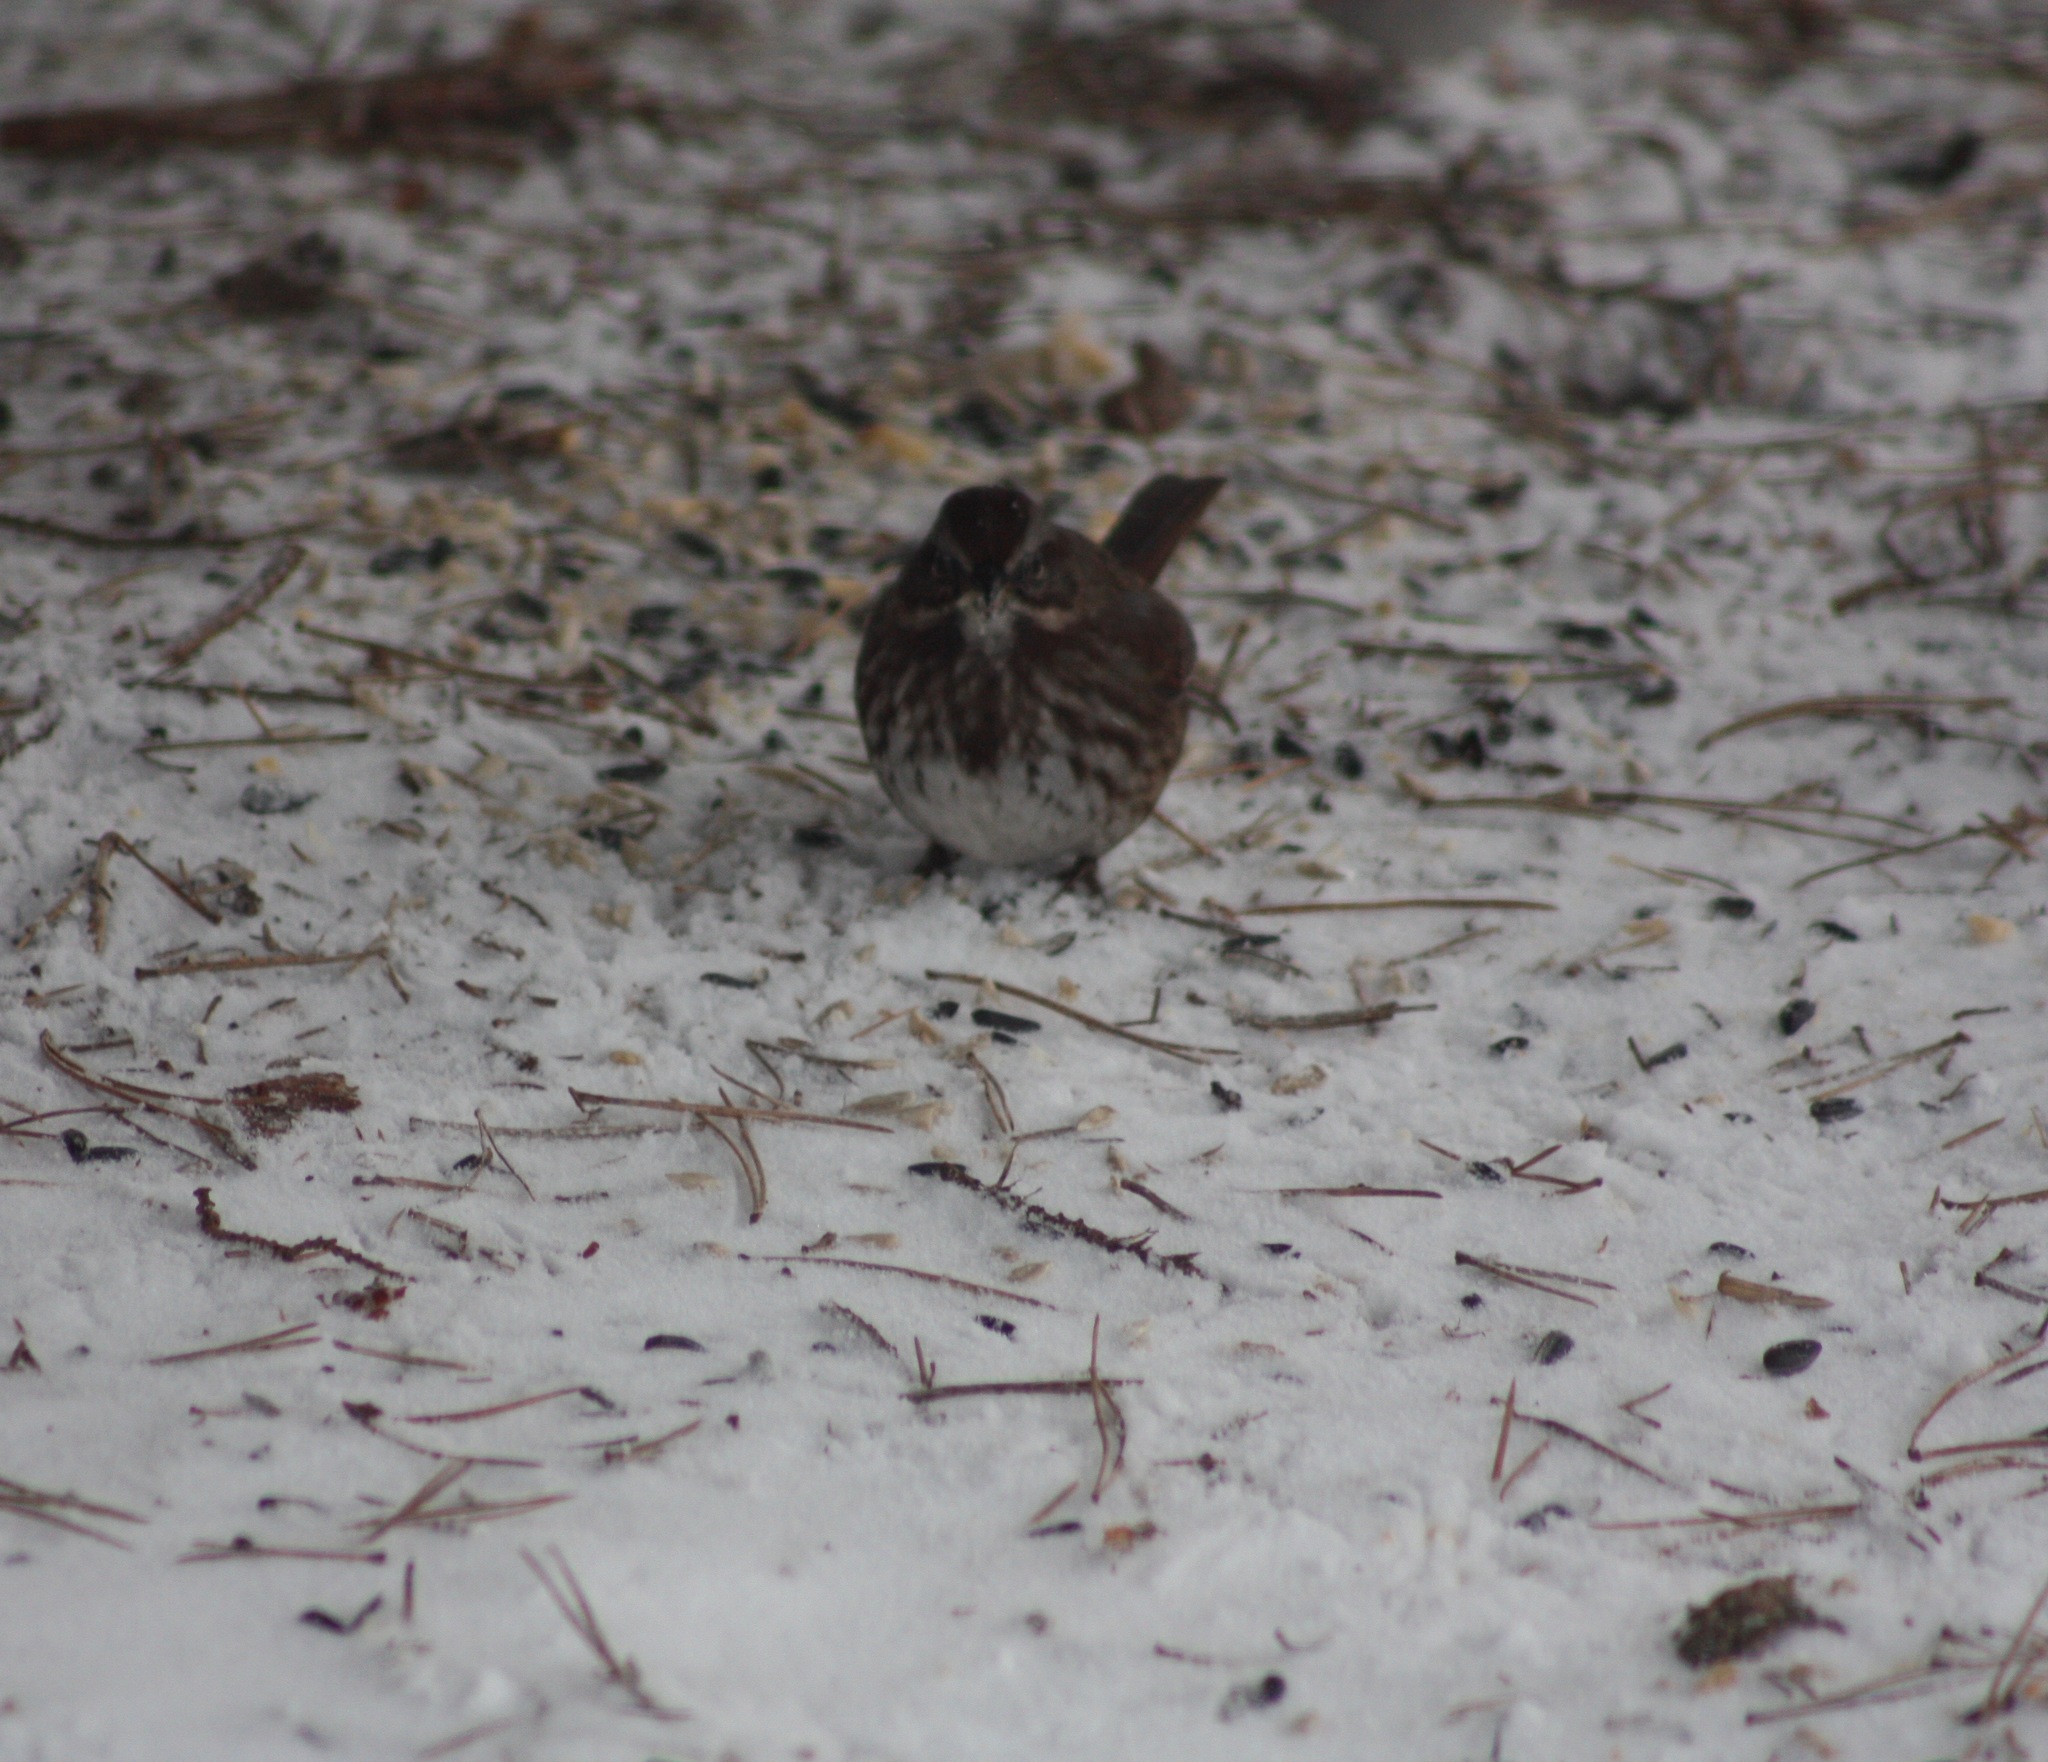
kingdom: Animalia
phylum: Chordata
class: Aves
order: Passeriformes
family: Passerellidae
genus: Melospiza
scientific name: Melospiza melodia
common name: Song sparrow
